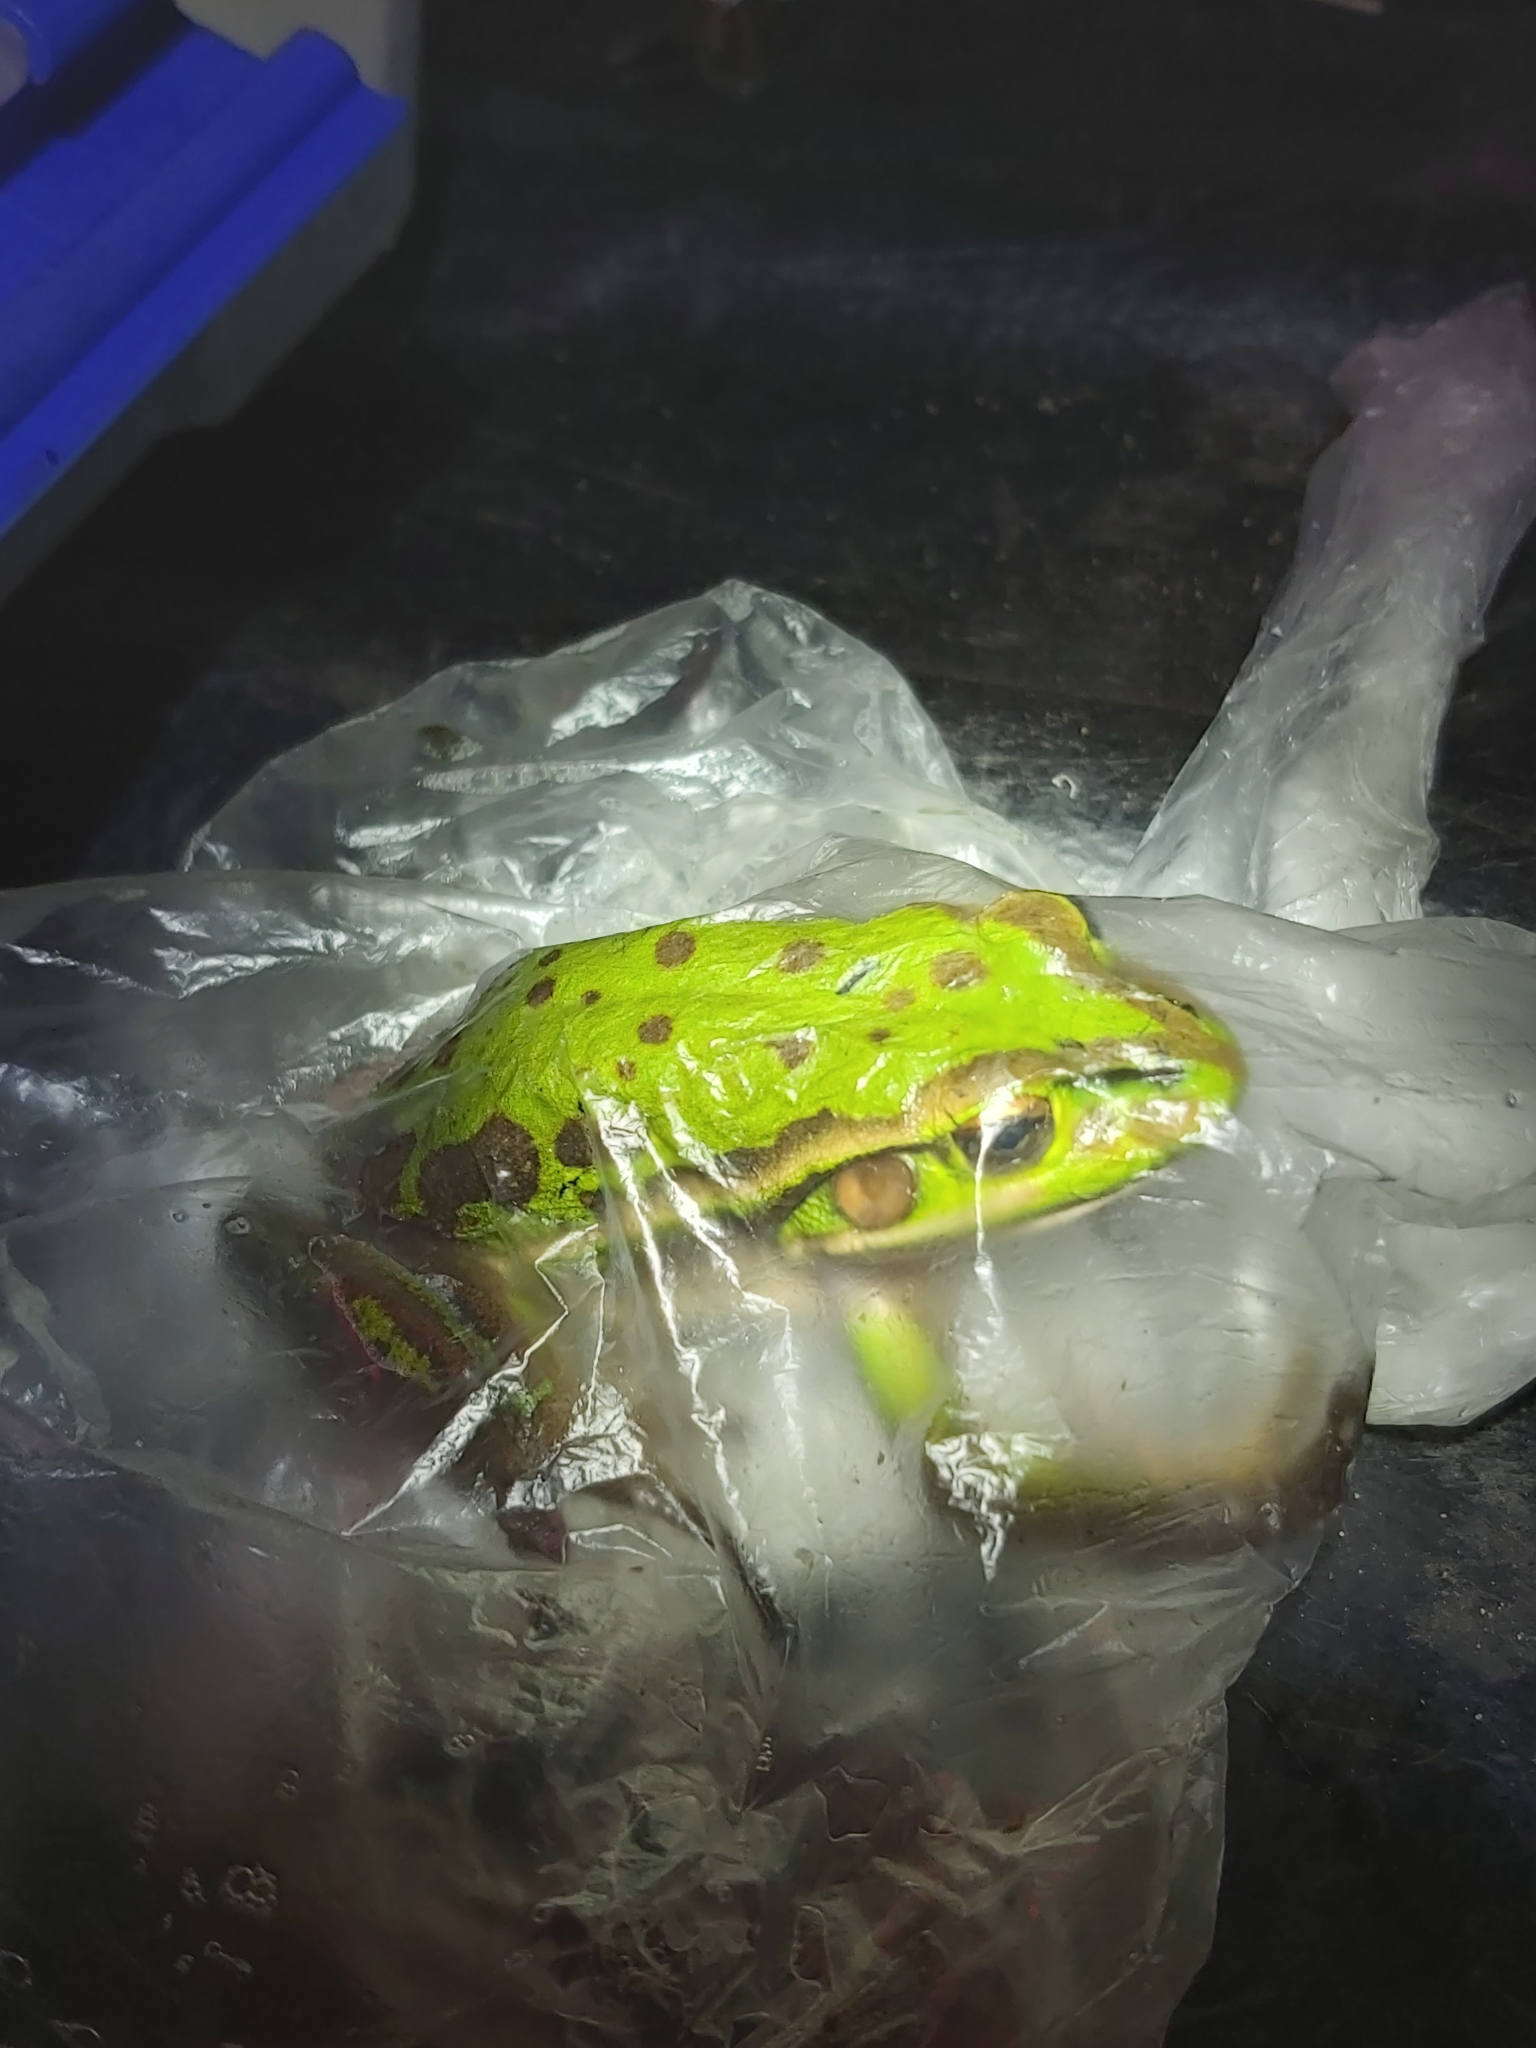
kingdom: Animalia
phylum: Chordata
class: Amphibia
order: Anura
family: Pelodryadidae
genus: Ranoidea
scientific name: Ranoidea aurea
